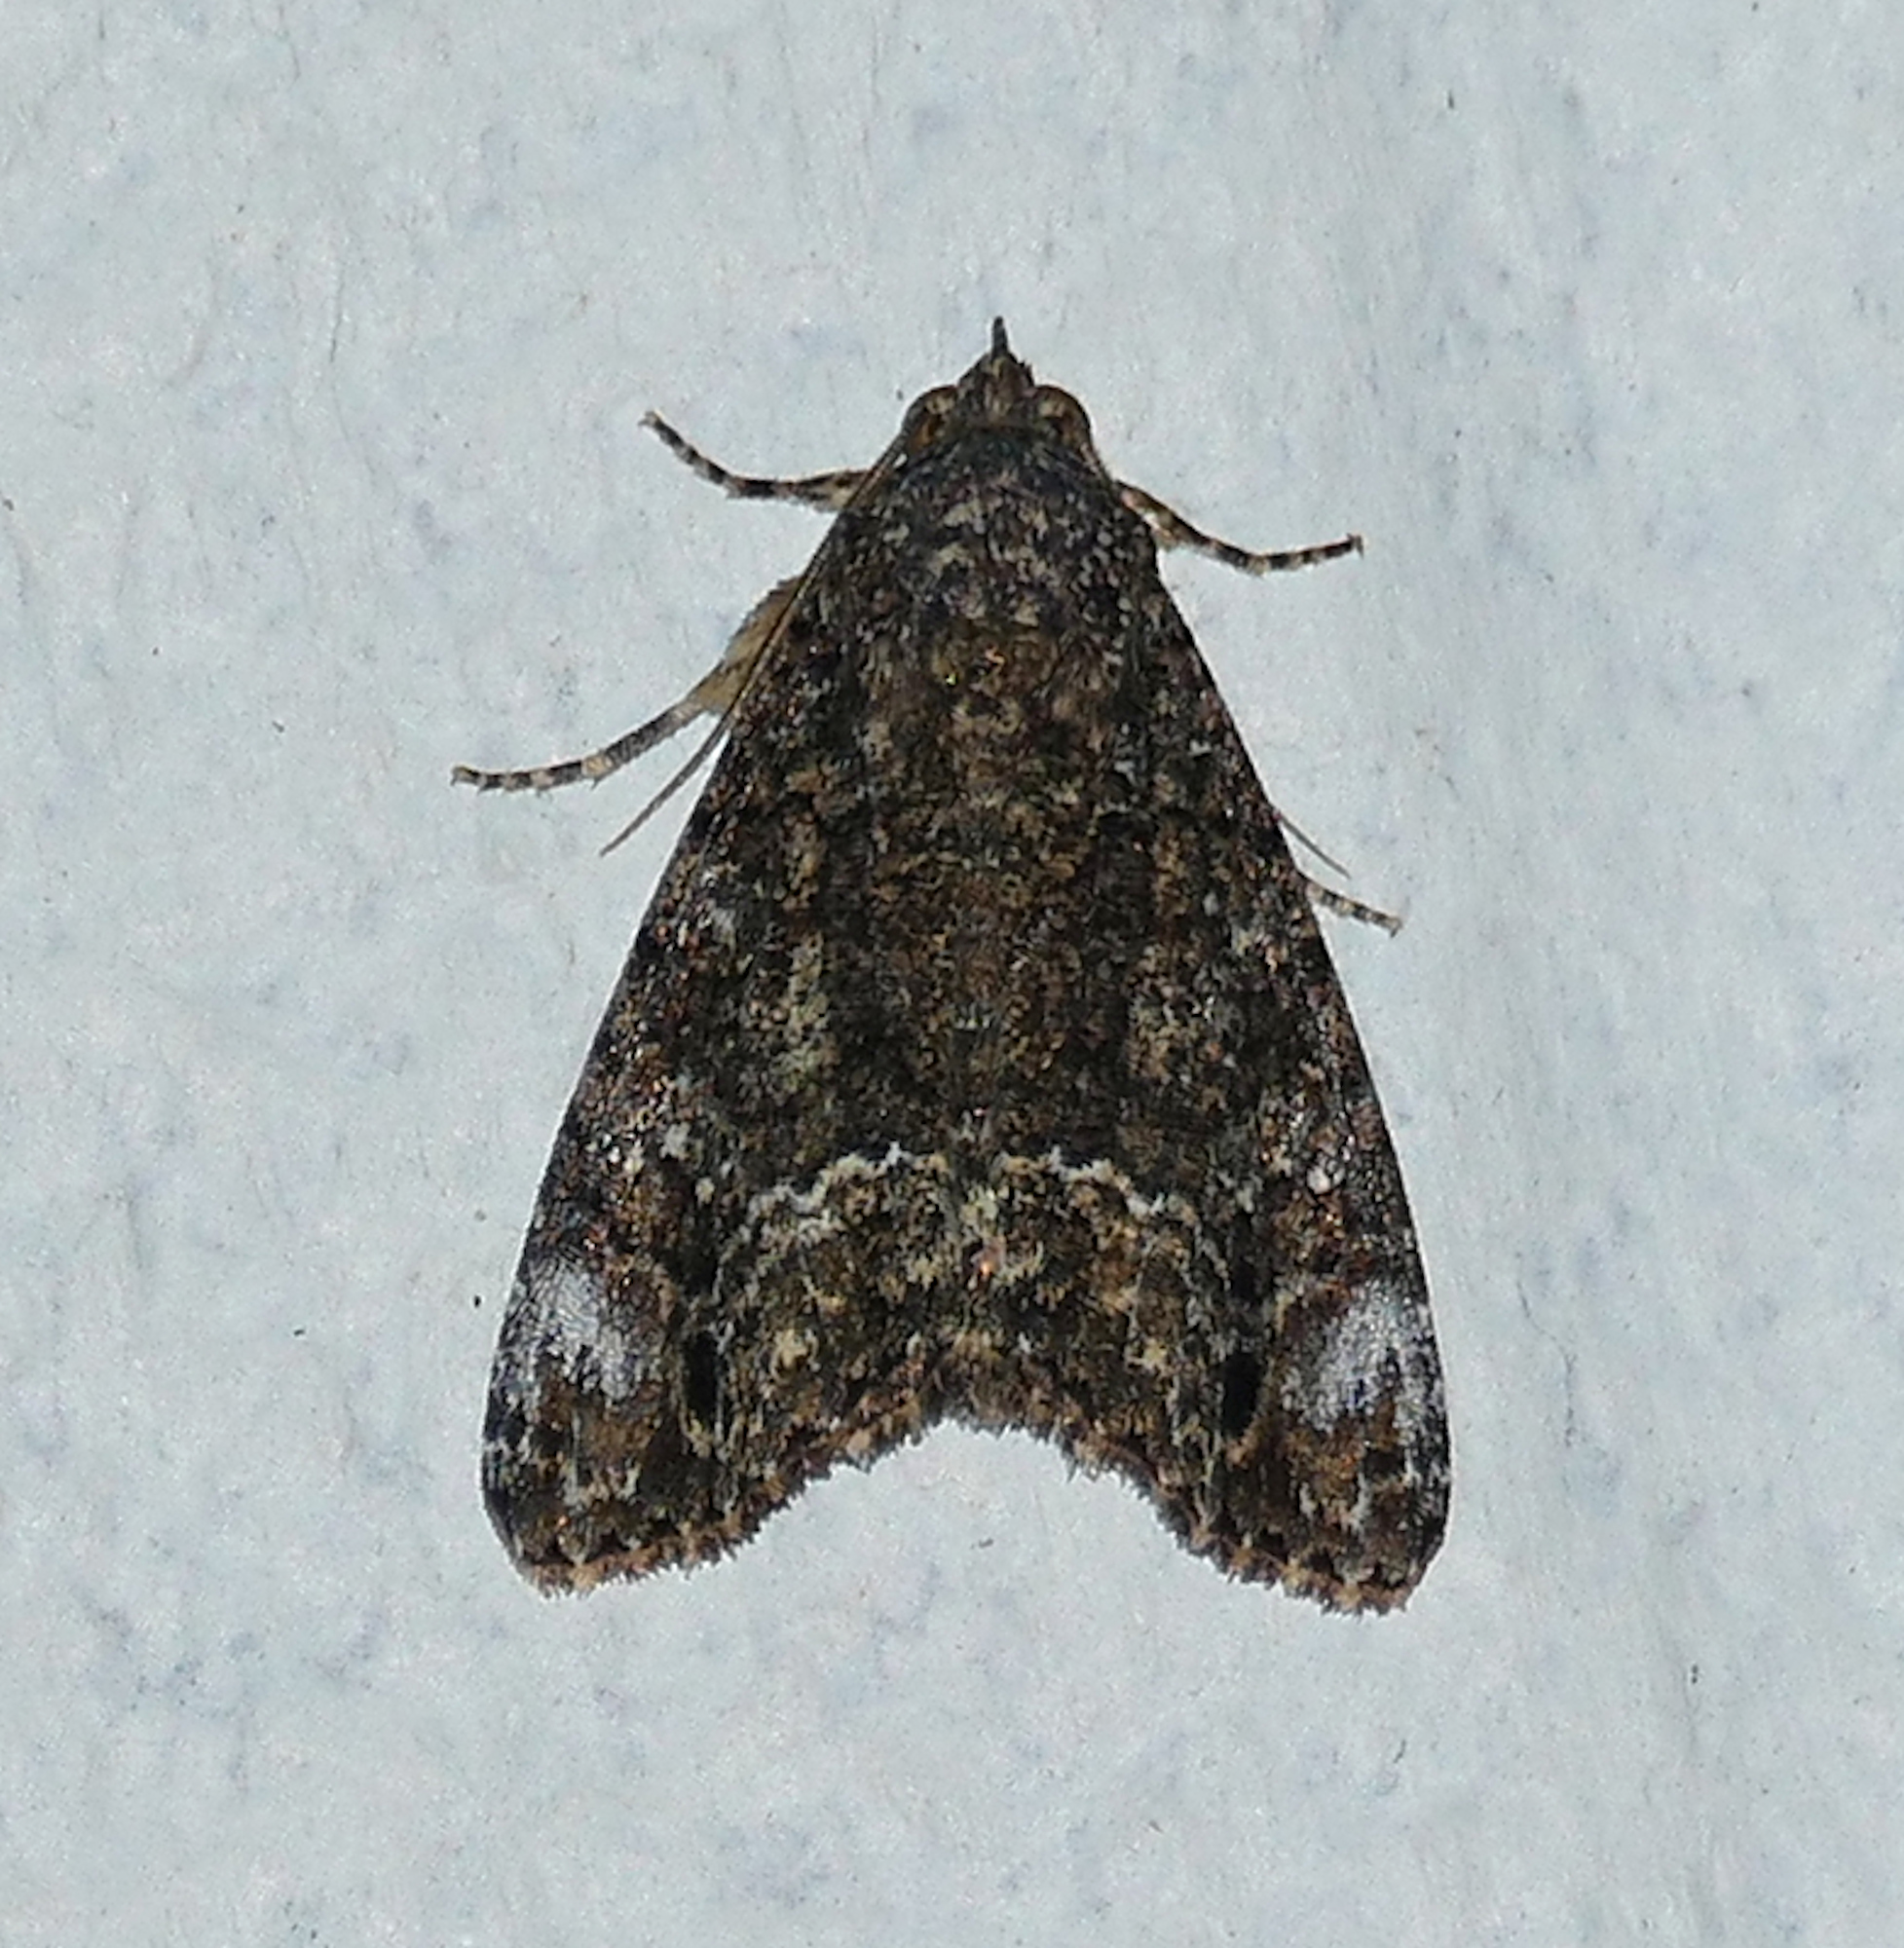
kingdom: Animalia
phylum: Arthropoda
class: Insecta
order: Lepidoptera
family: Noctuidae
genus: Cropia
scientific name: Cropia connecta
